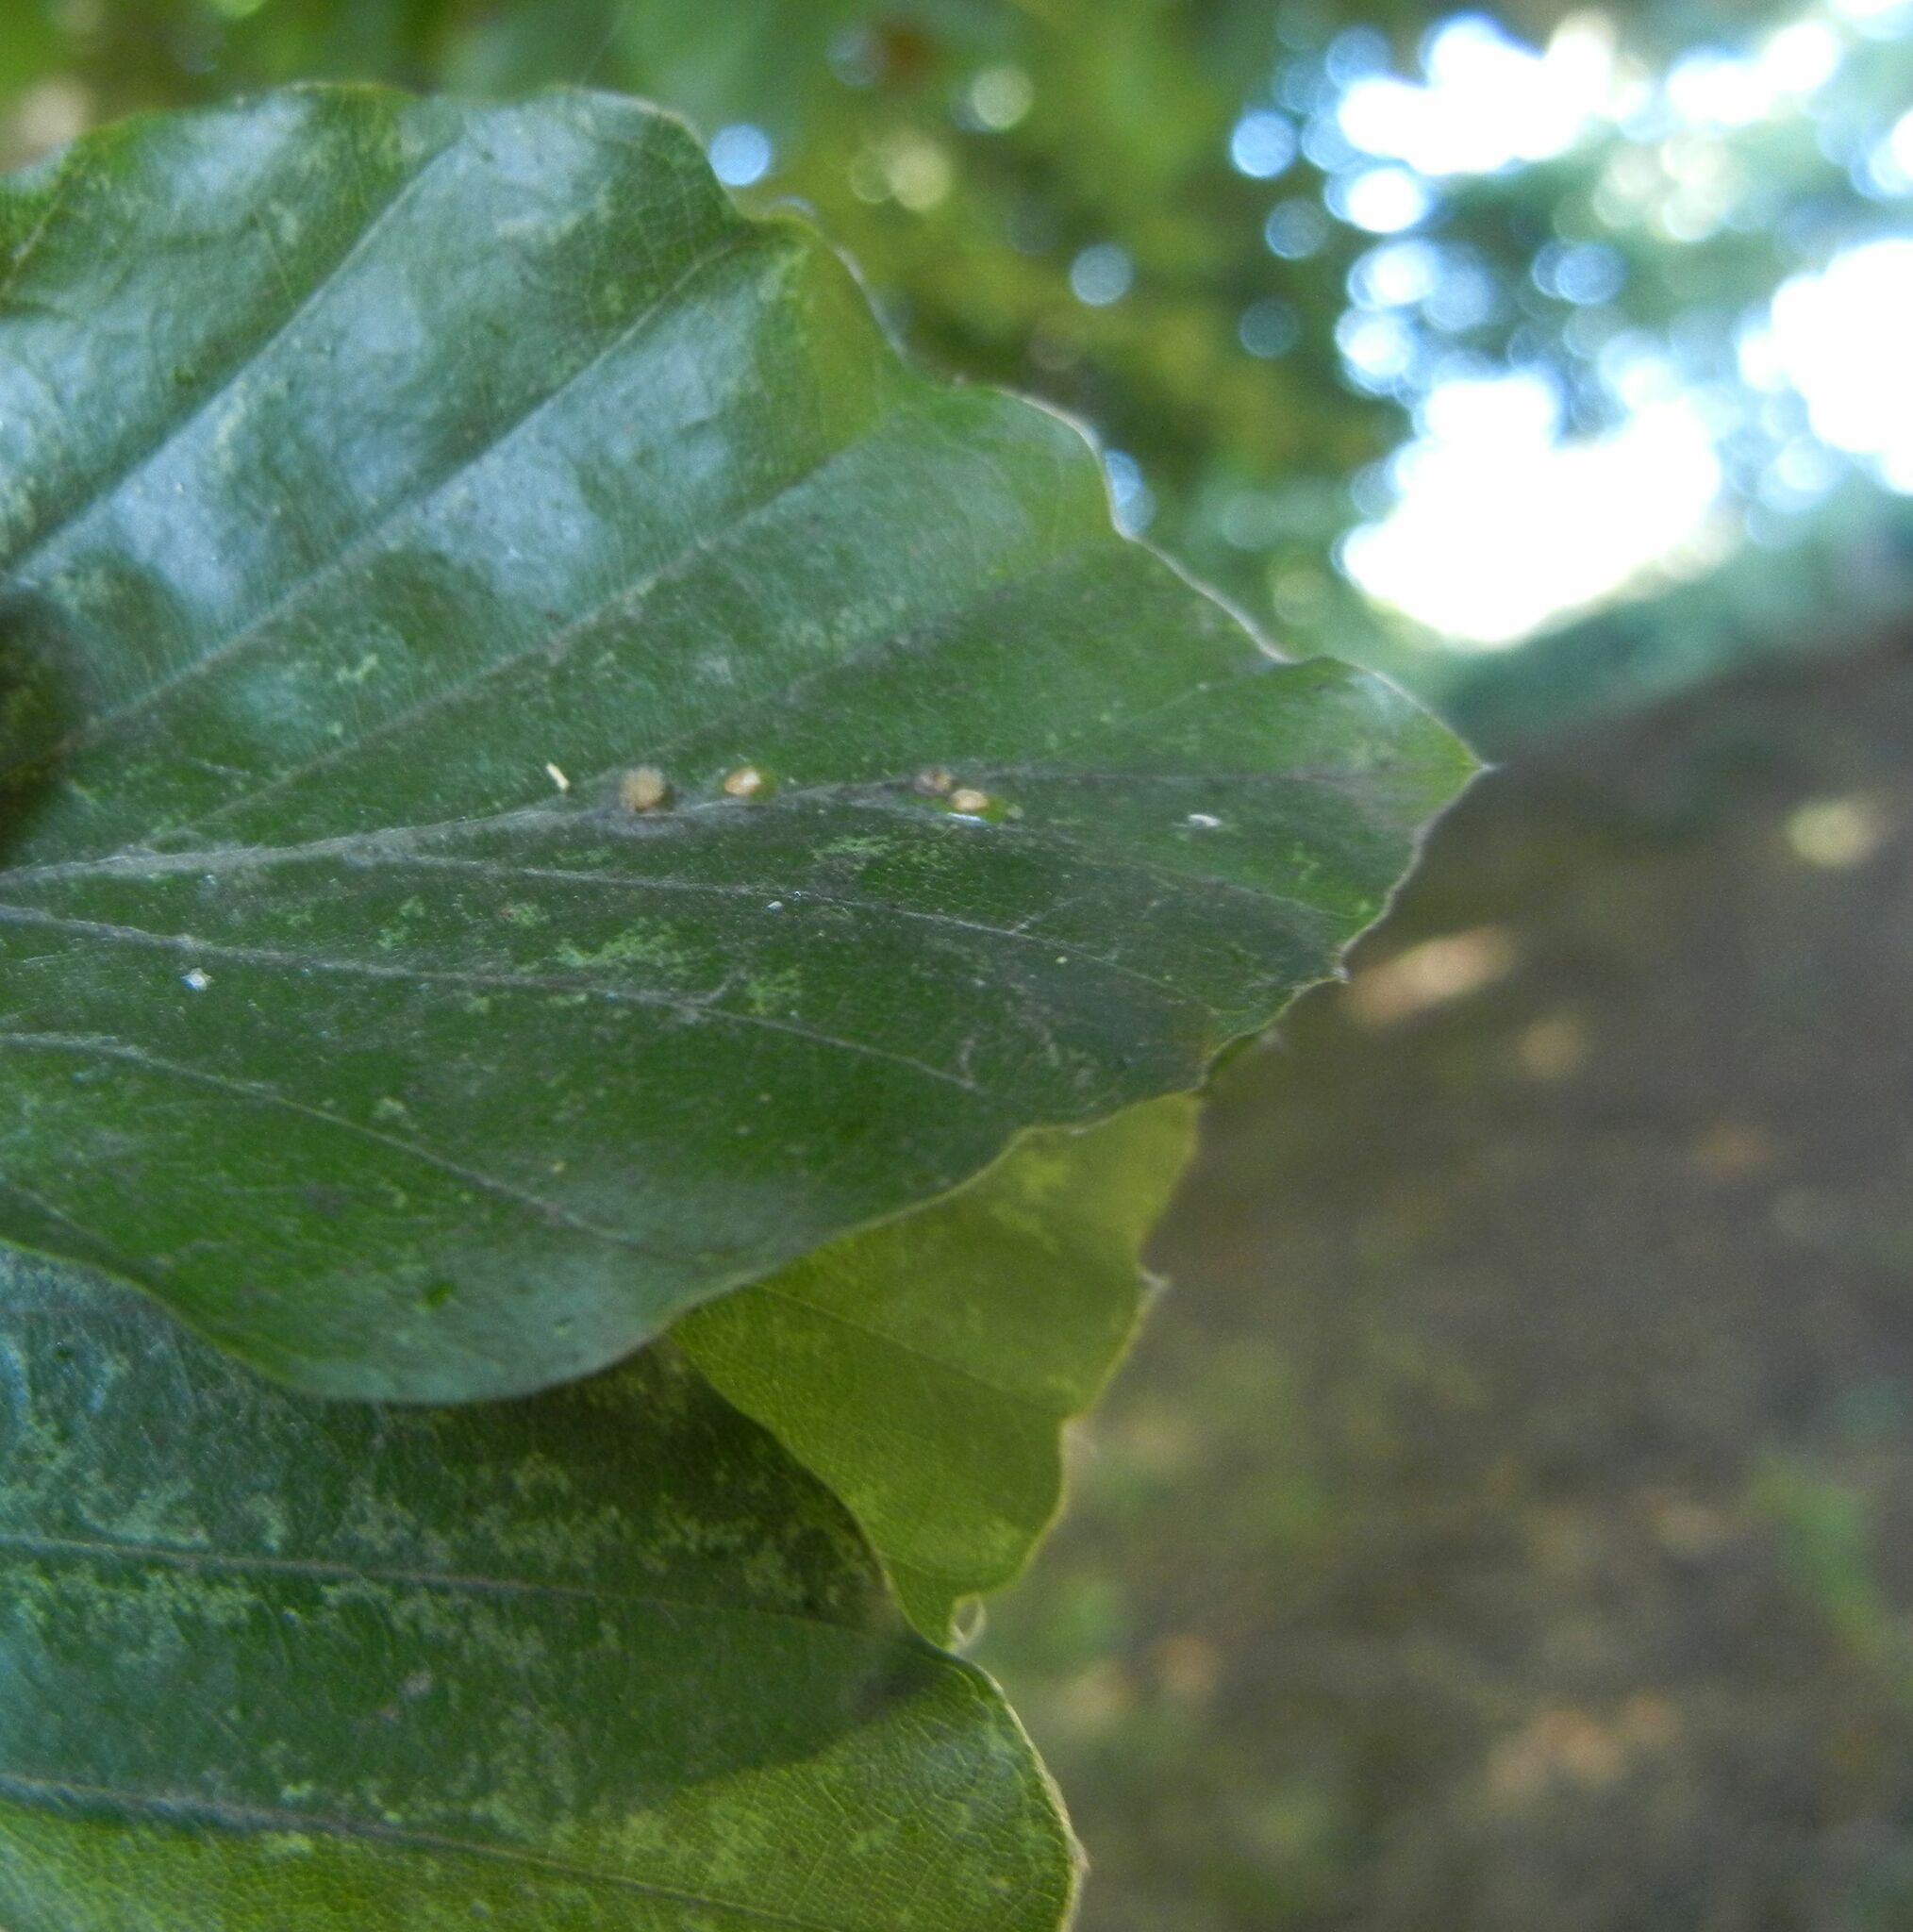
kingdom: Plantae
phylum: Tracheophyta
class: Magnoliopsida
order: Fagales
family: Fagaceae
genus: Fagus
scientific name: Fagus sylvatica
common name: Beech
